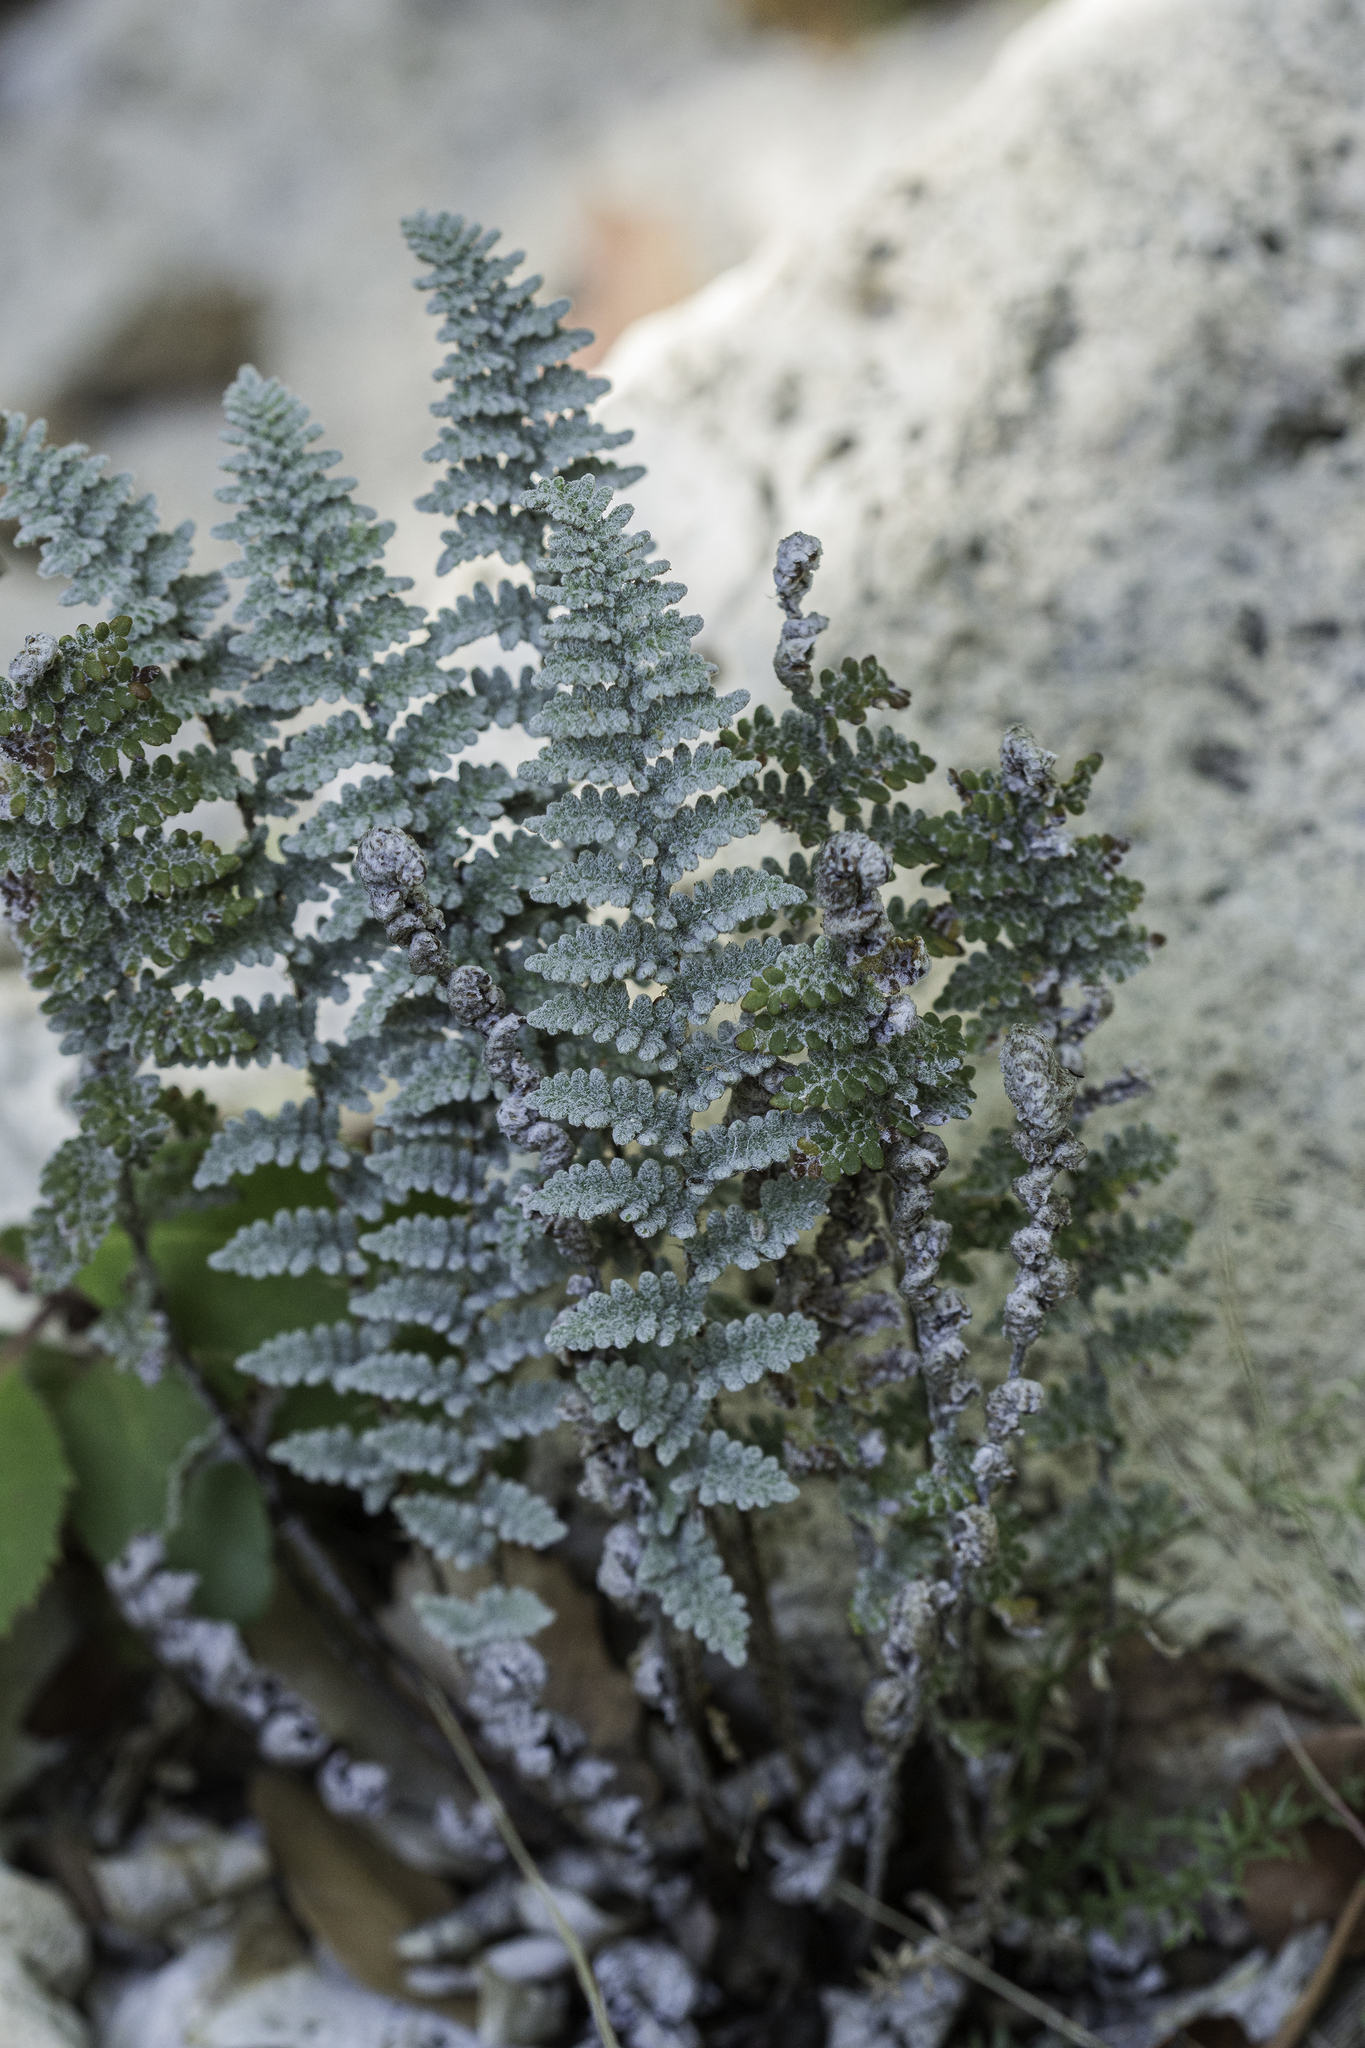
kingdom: Plantae
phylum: Tracheophyta
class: Polypodiopsida
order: Polypodiales
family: Pteridaceae
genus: Myriopteris
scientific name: Myriopteris rufa
